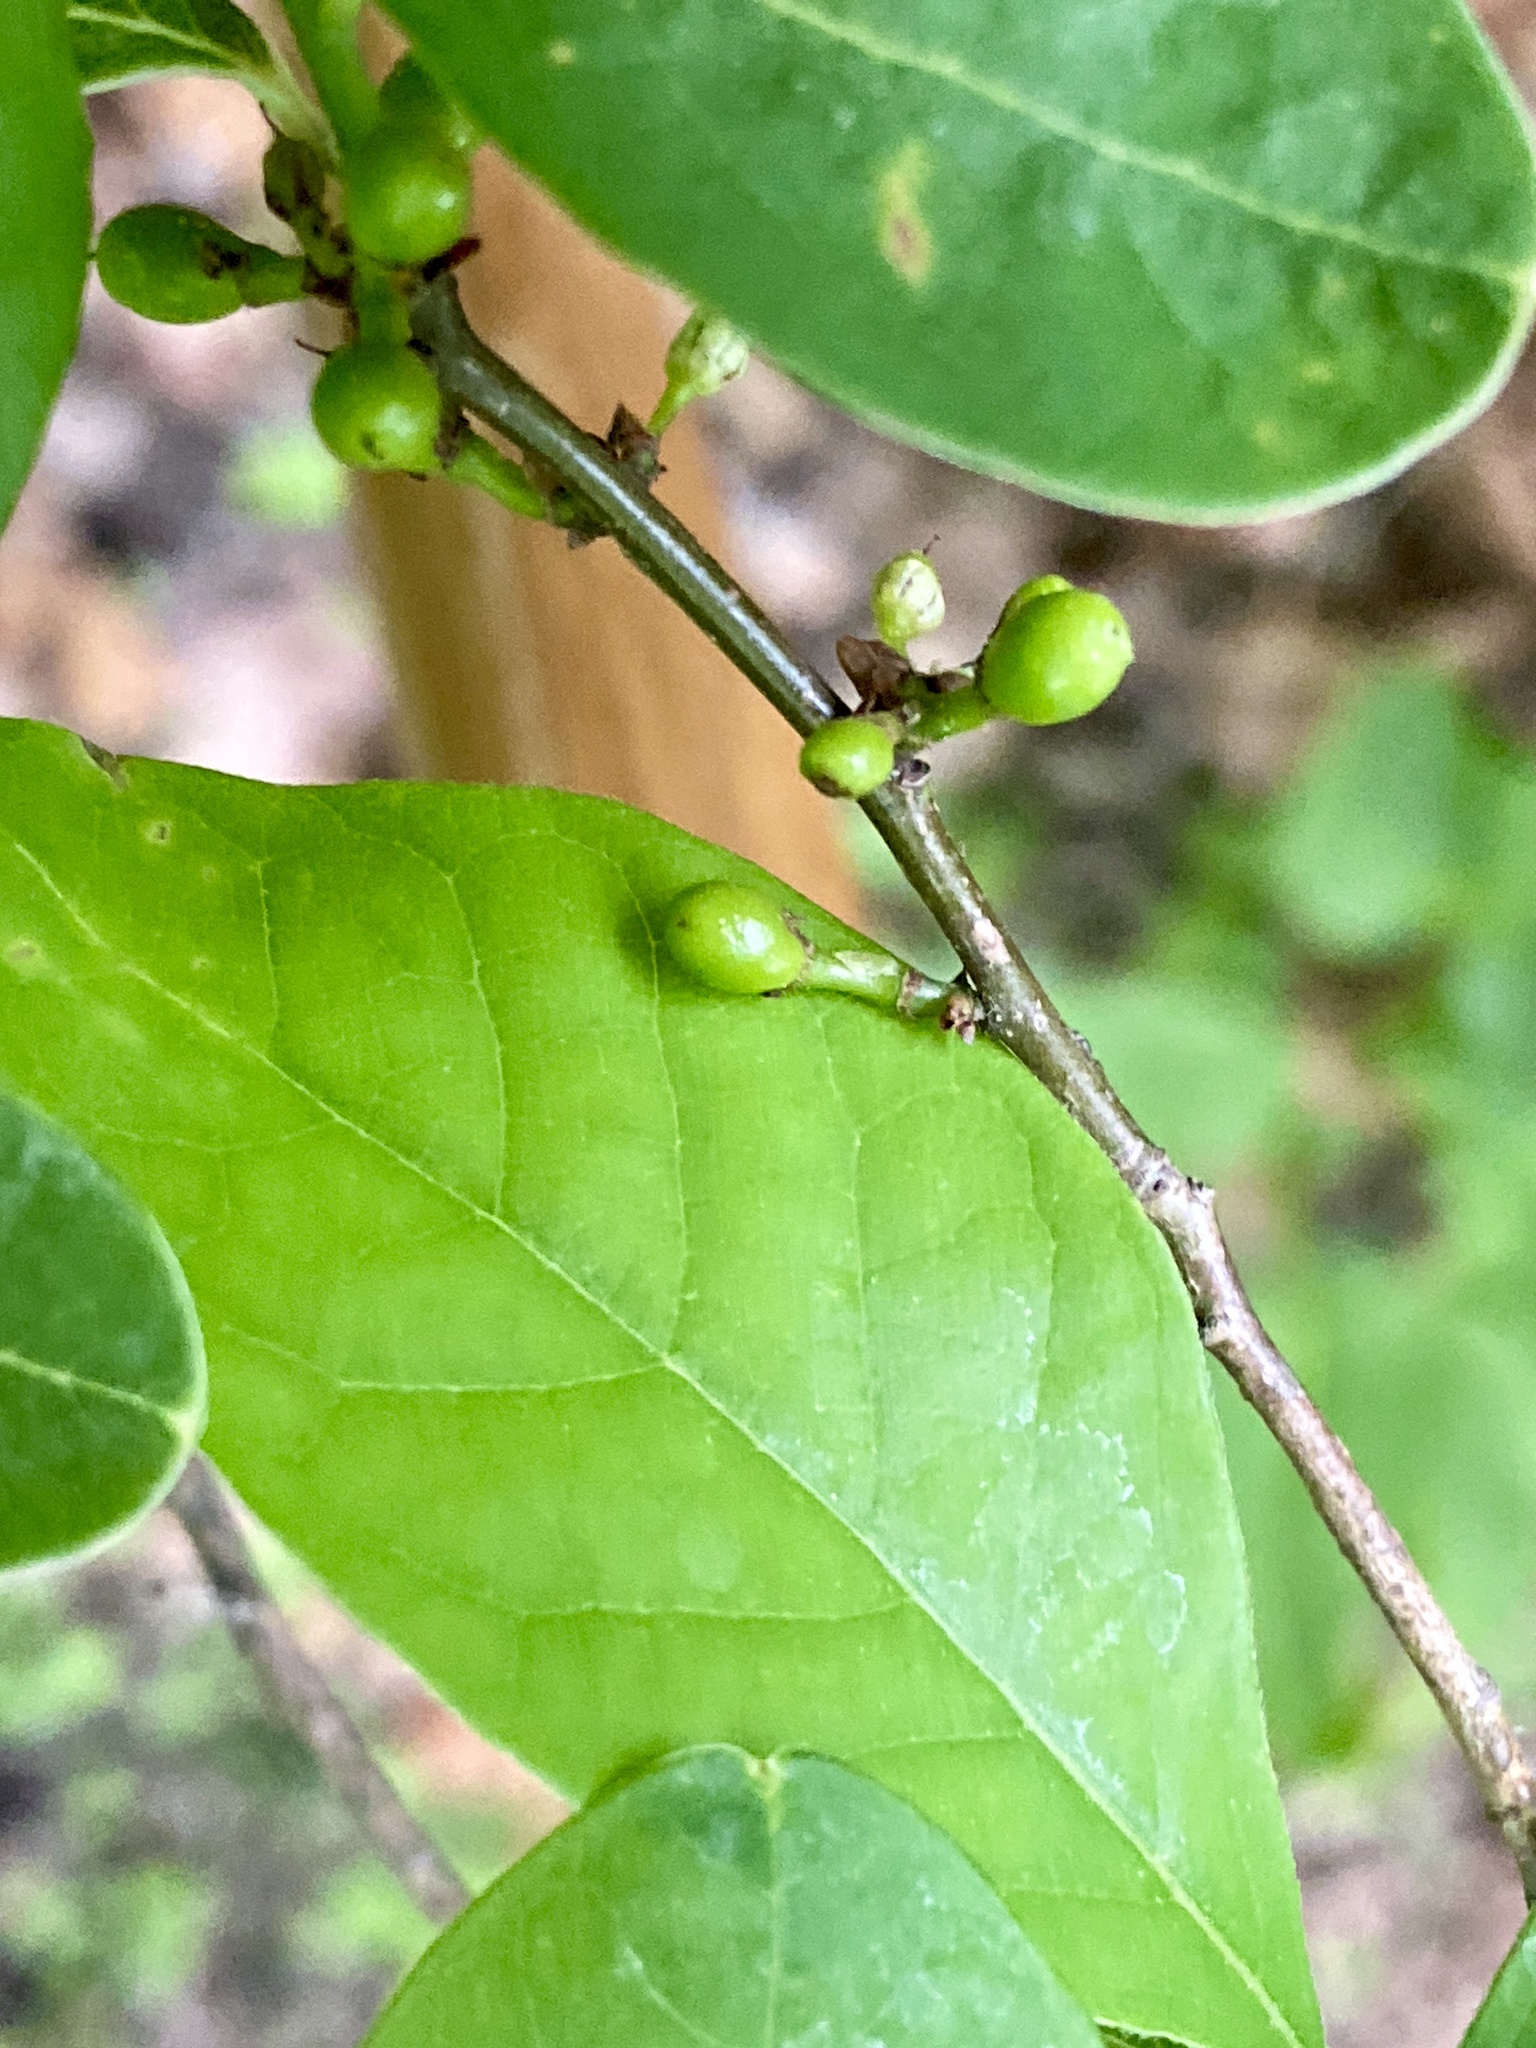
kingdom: Plantae
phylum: Tracheophyta
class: Magnoliopsida
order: Laurales
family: Lauraceae
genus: Lindera
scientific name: Lindera benzoin
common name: Spicebush
